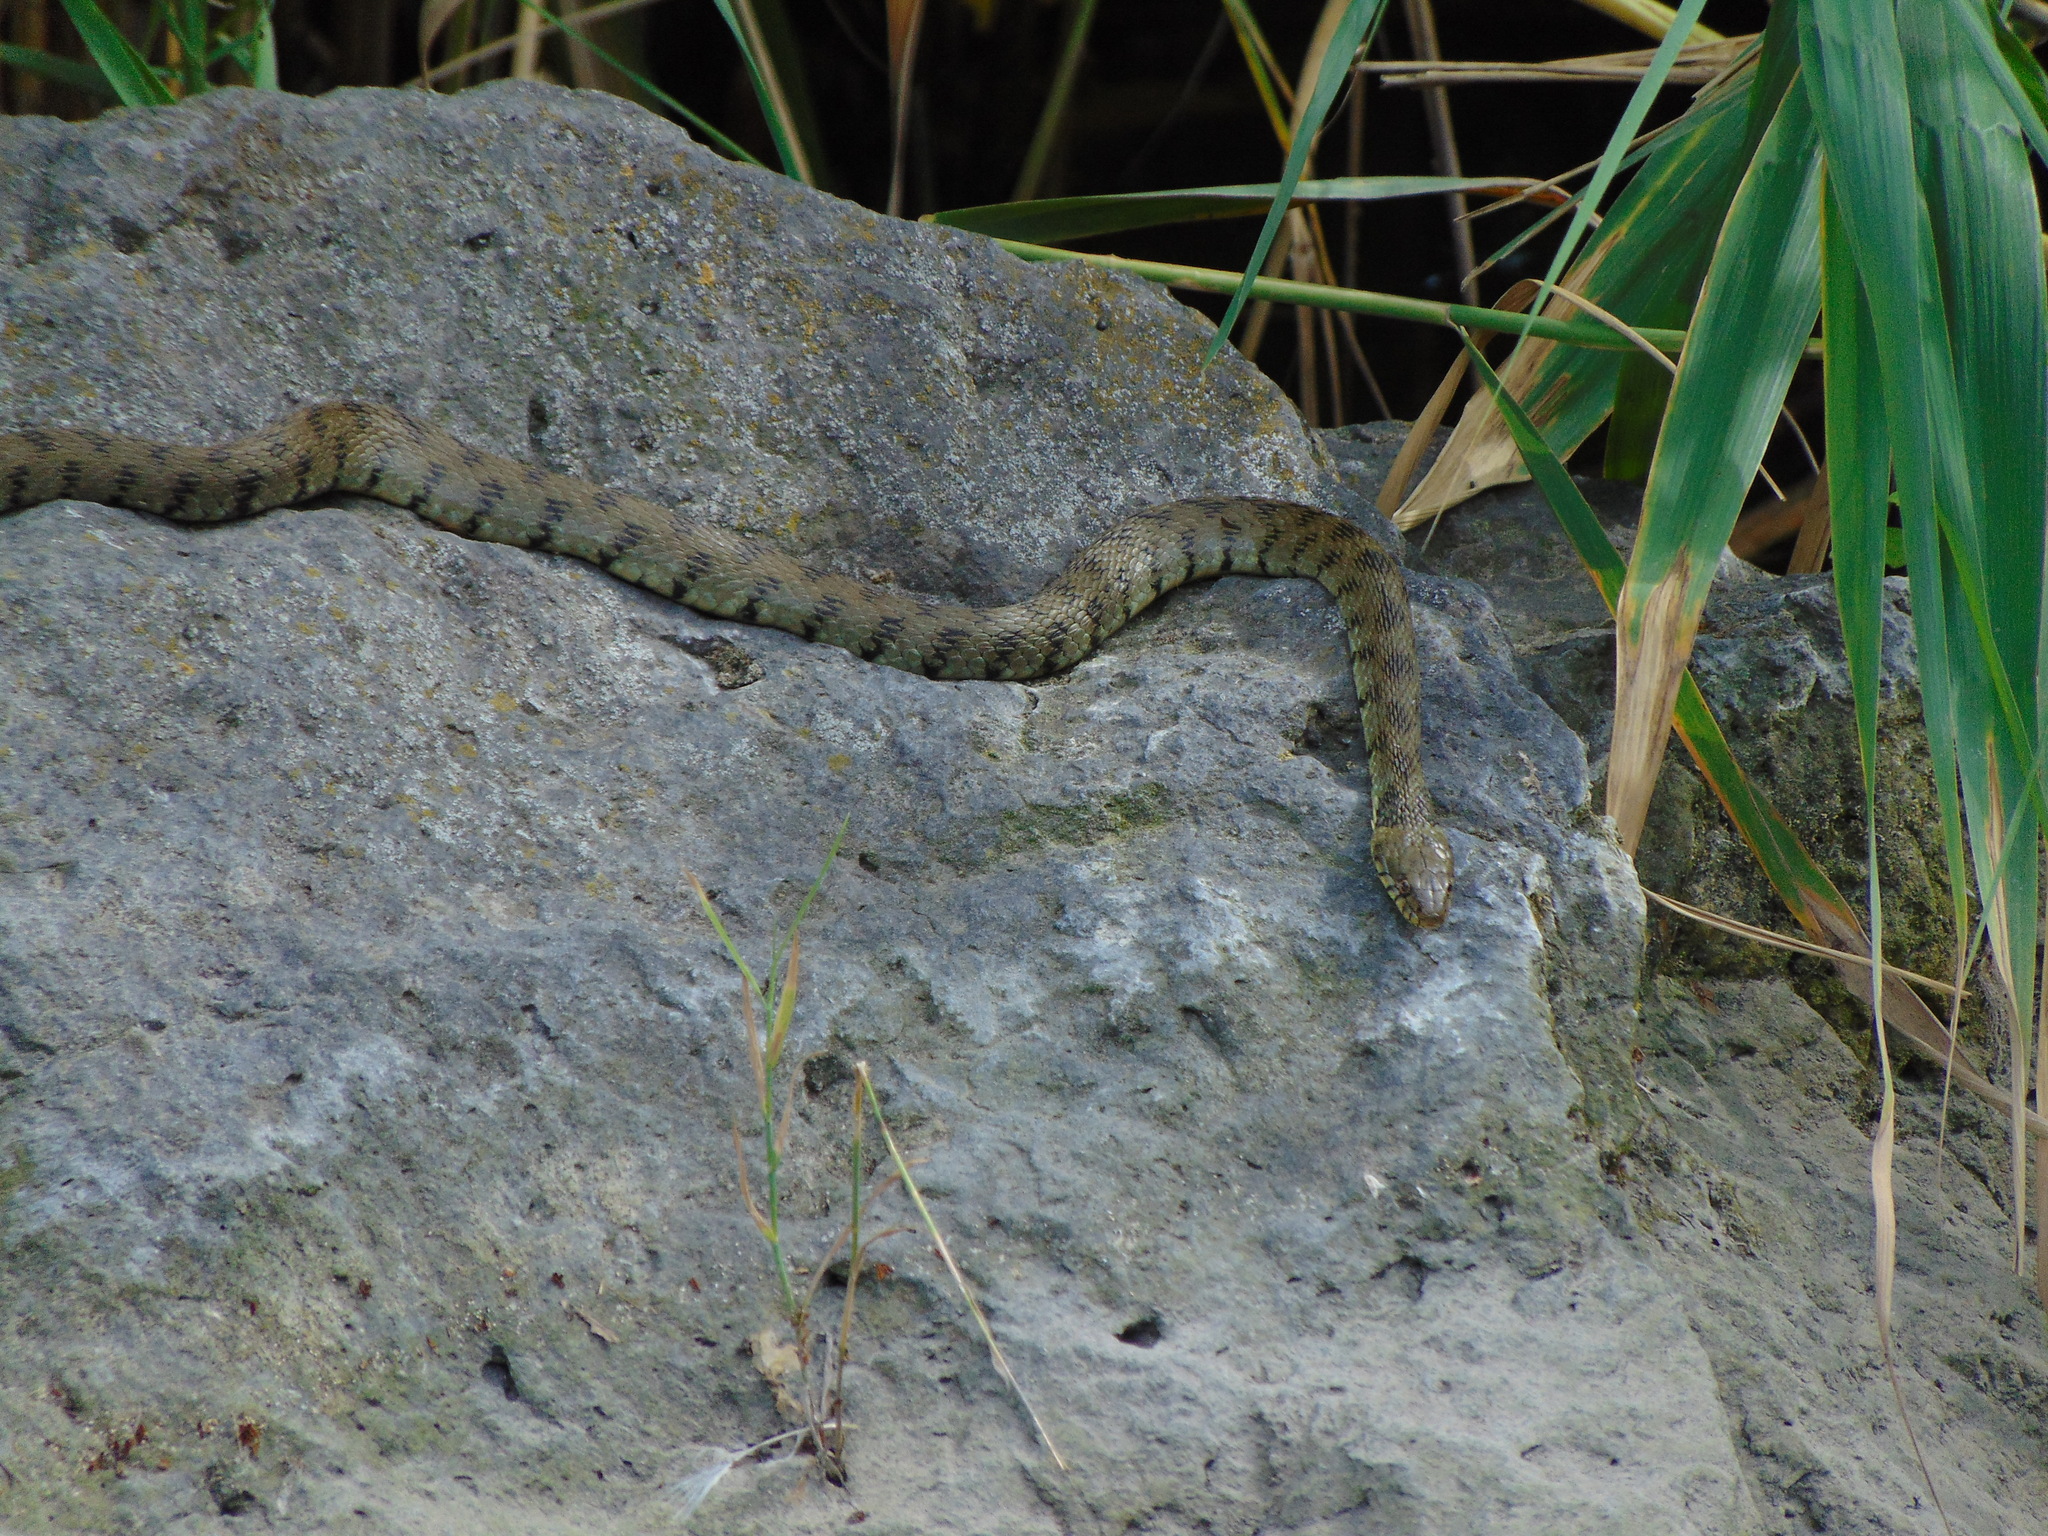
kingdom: Animalia
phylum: Chordata
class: Squamata
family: Colubridae
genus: Natrix
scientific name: Natrix maura
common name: Viperine water snake
